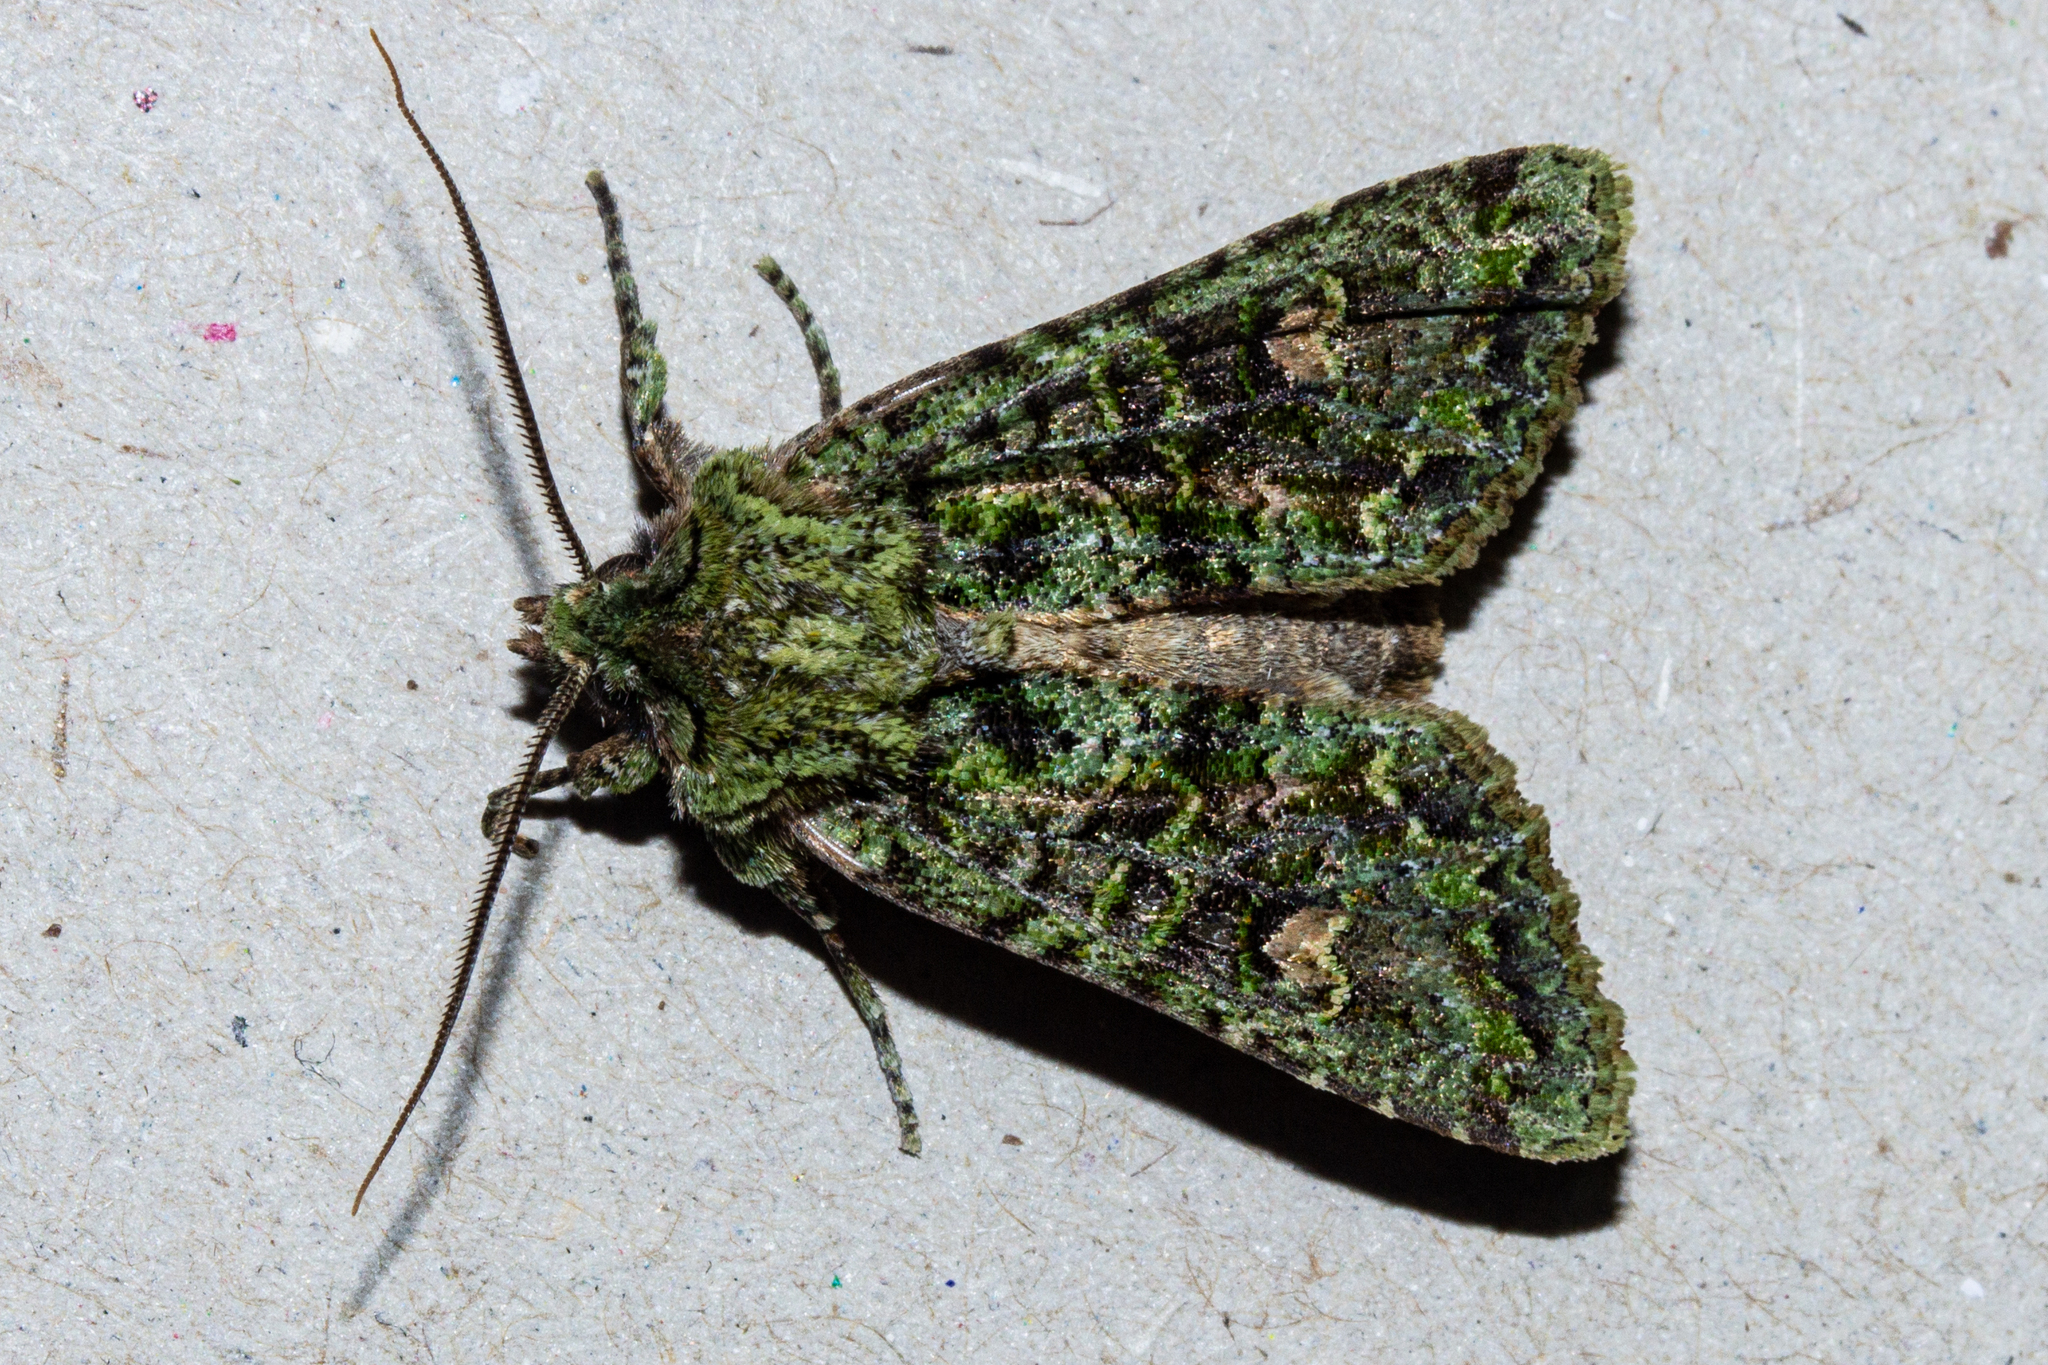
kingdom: Animalia
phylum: Arthropoda
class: Insecta
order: Lepidoptera
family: Noctuidae
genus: Ichneutica
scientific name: Ichneutica
